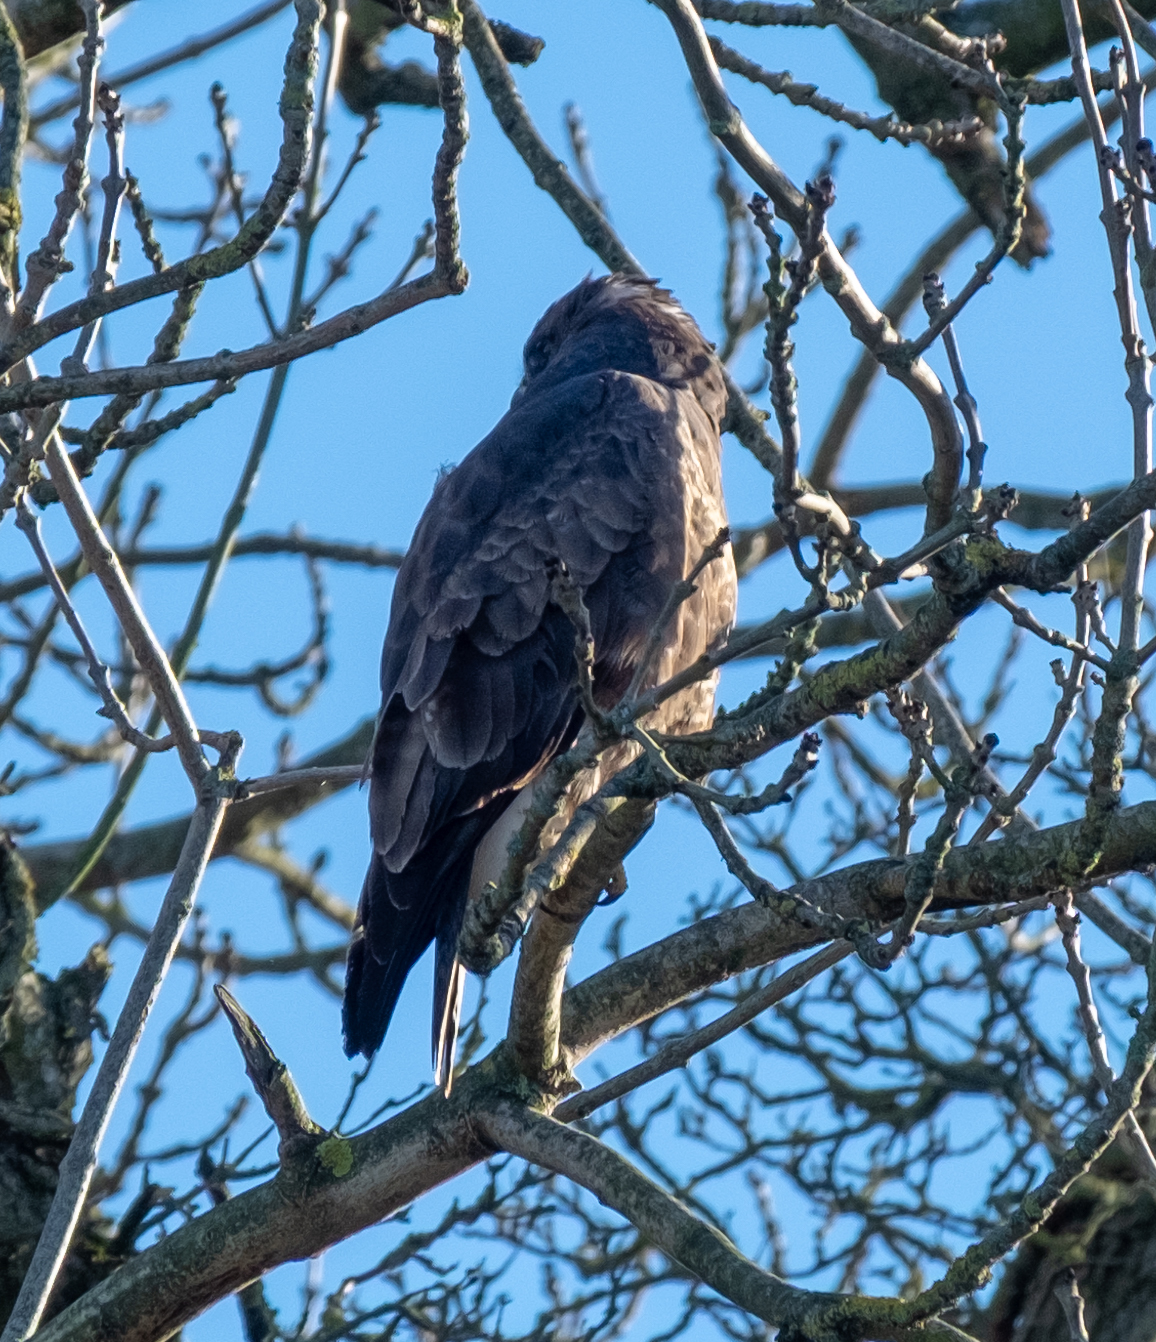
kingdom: Animalia
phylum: Chordata
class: Aves
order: Accipitriformes
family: Accipitridae
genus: Buteo
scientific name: Buteo buteo
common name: Common buzzard
